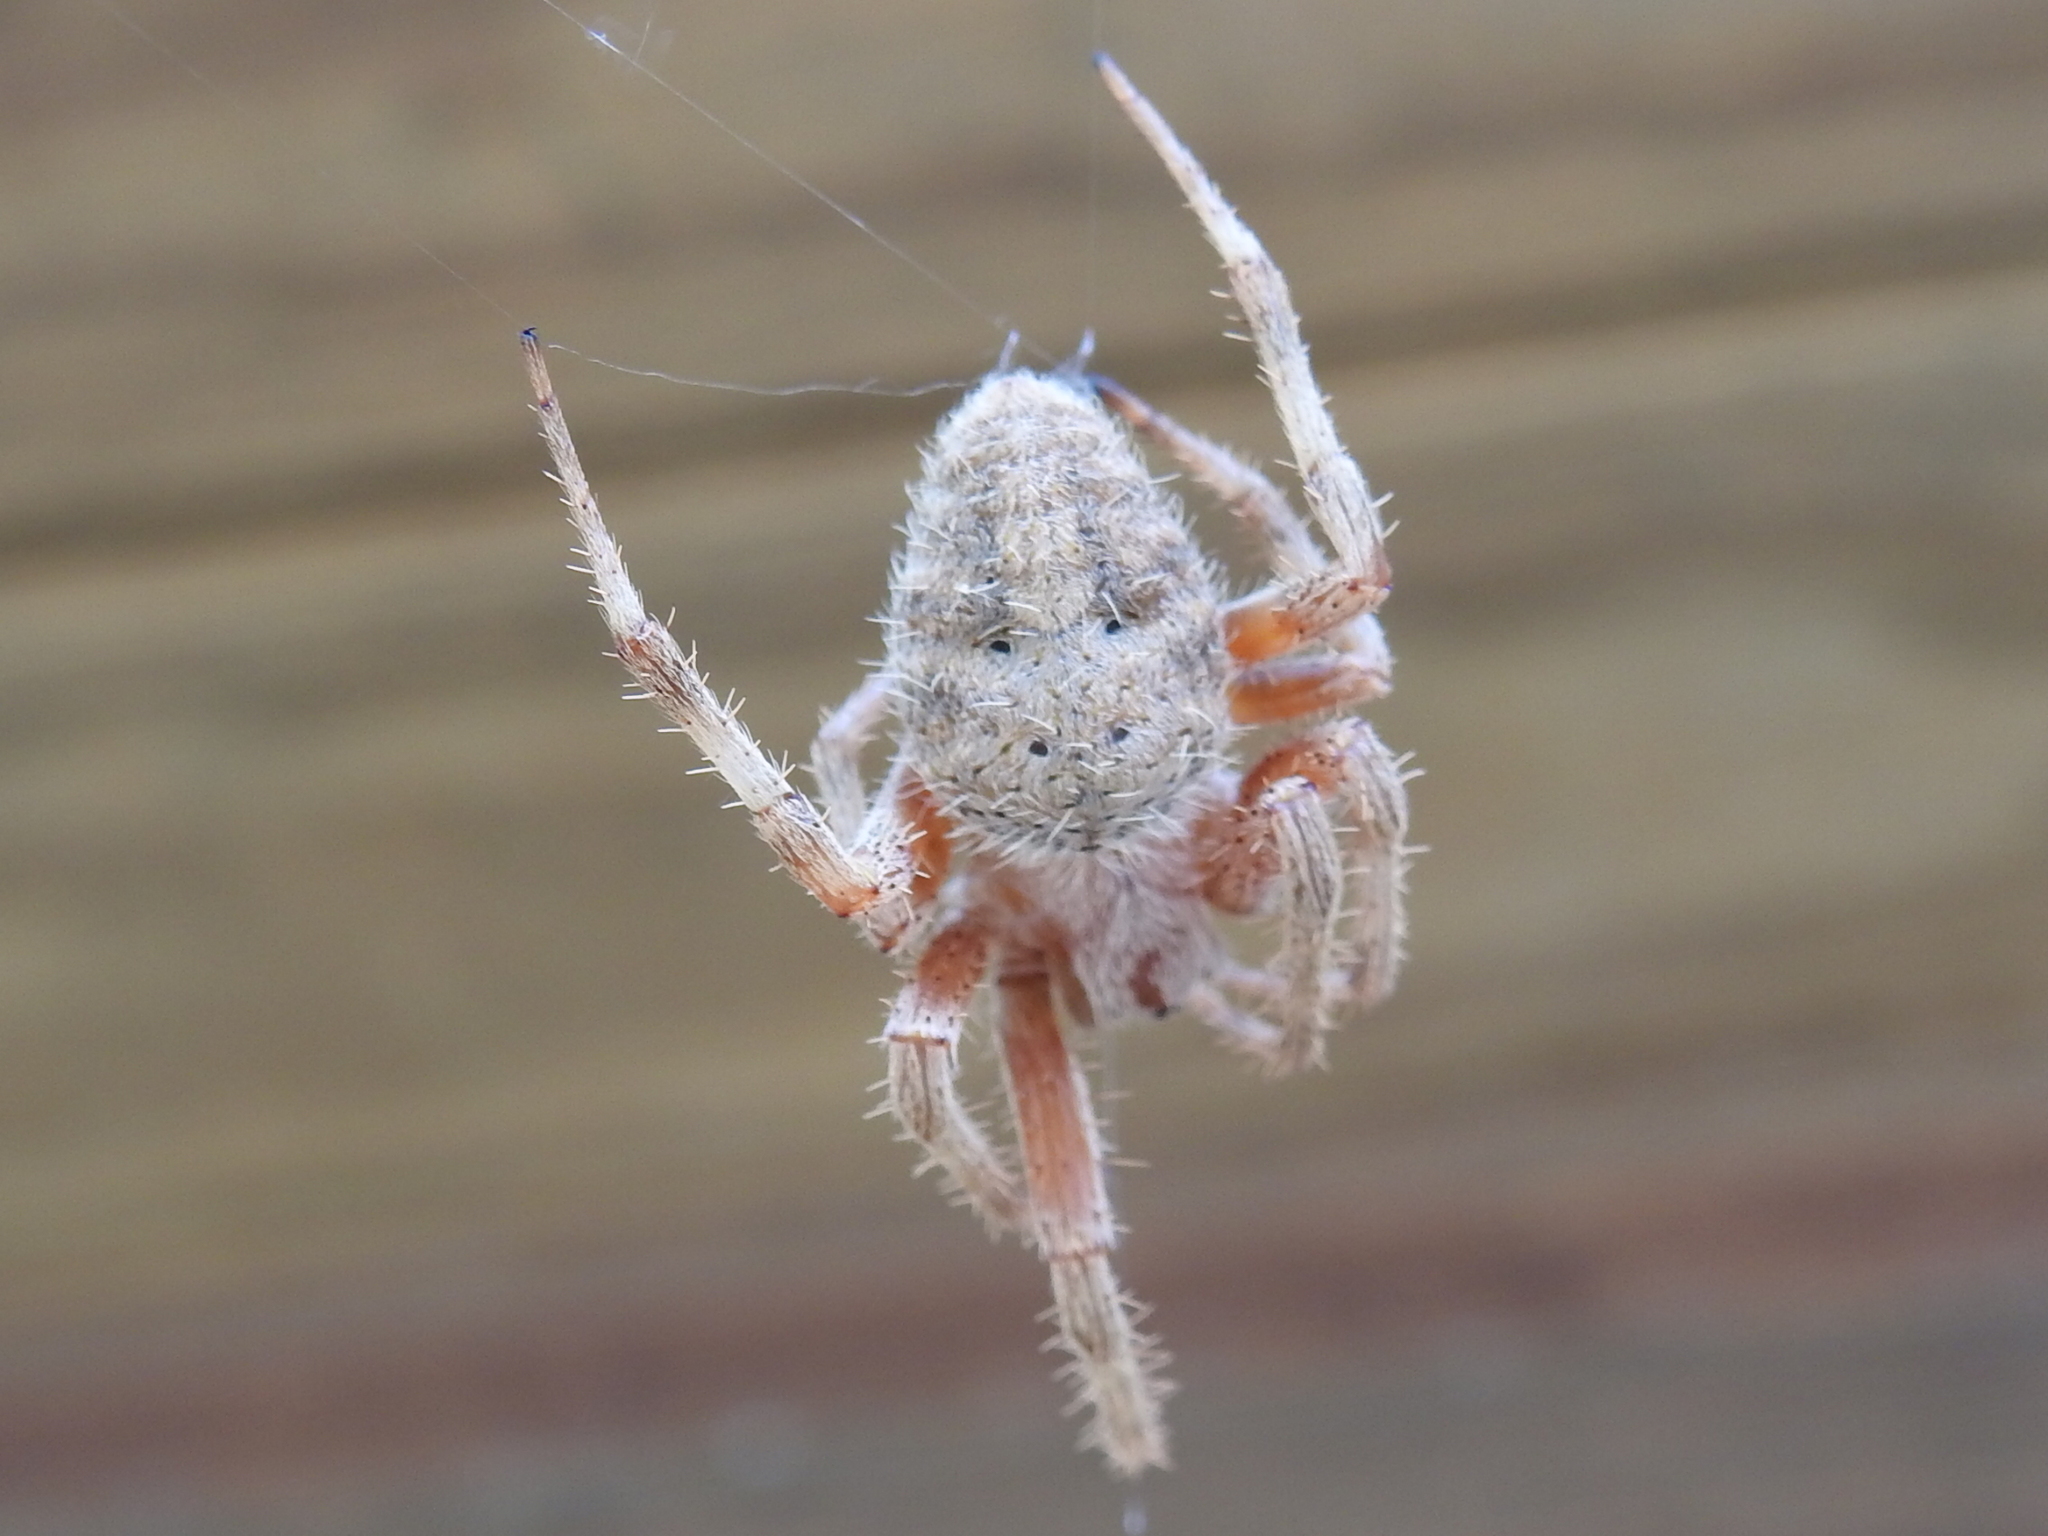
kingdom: Animalia
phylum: Arthropoda
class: Arachnida
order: Araneae
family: Araneidae
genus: Neoscona
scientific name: Neoscona crucifera
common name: Spotted orbweaver
